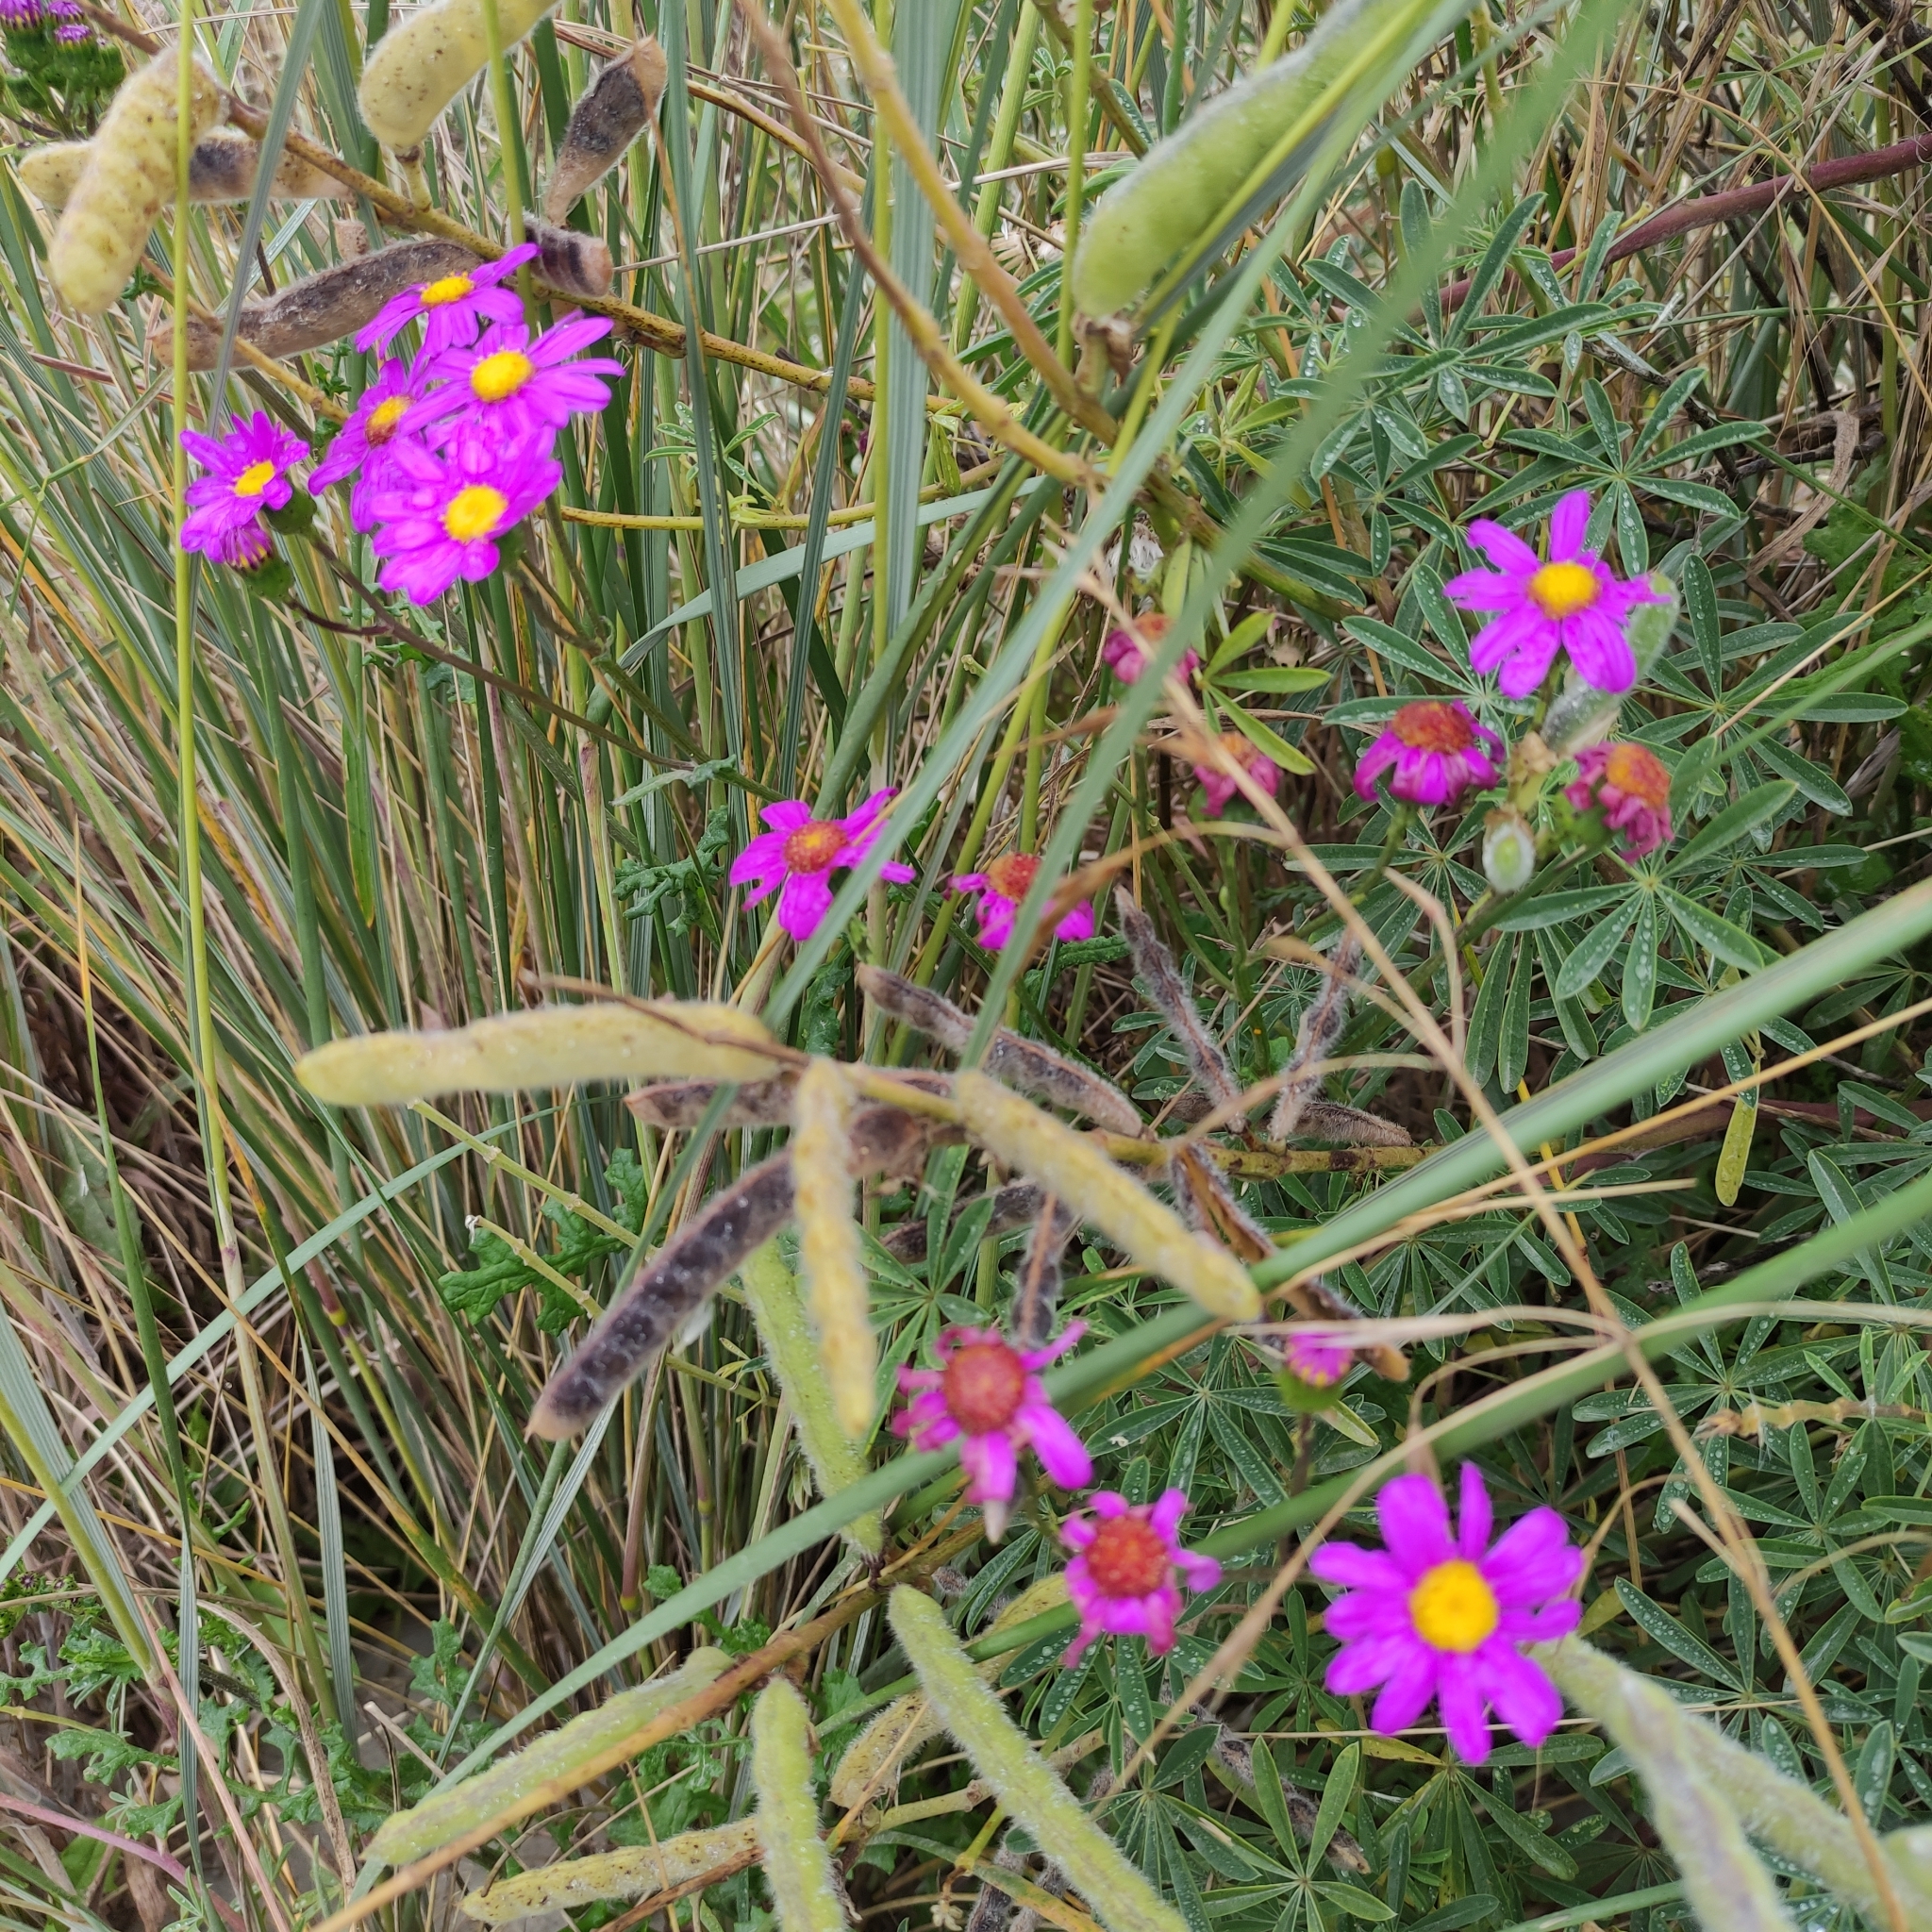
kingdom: Plantae
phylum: Tracheophyta
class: Magnoliopsida
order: Asterales
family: Asteraceae
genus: Senecio
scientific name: Senecio elegans
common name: Purple groundsel
